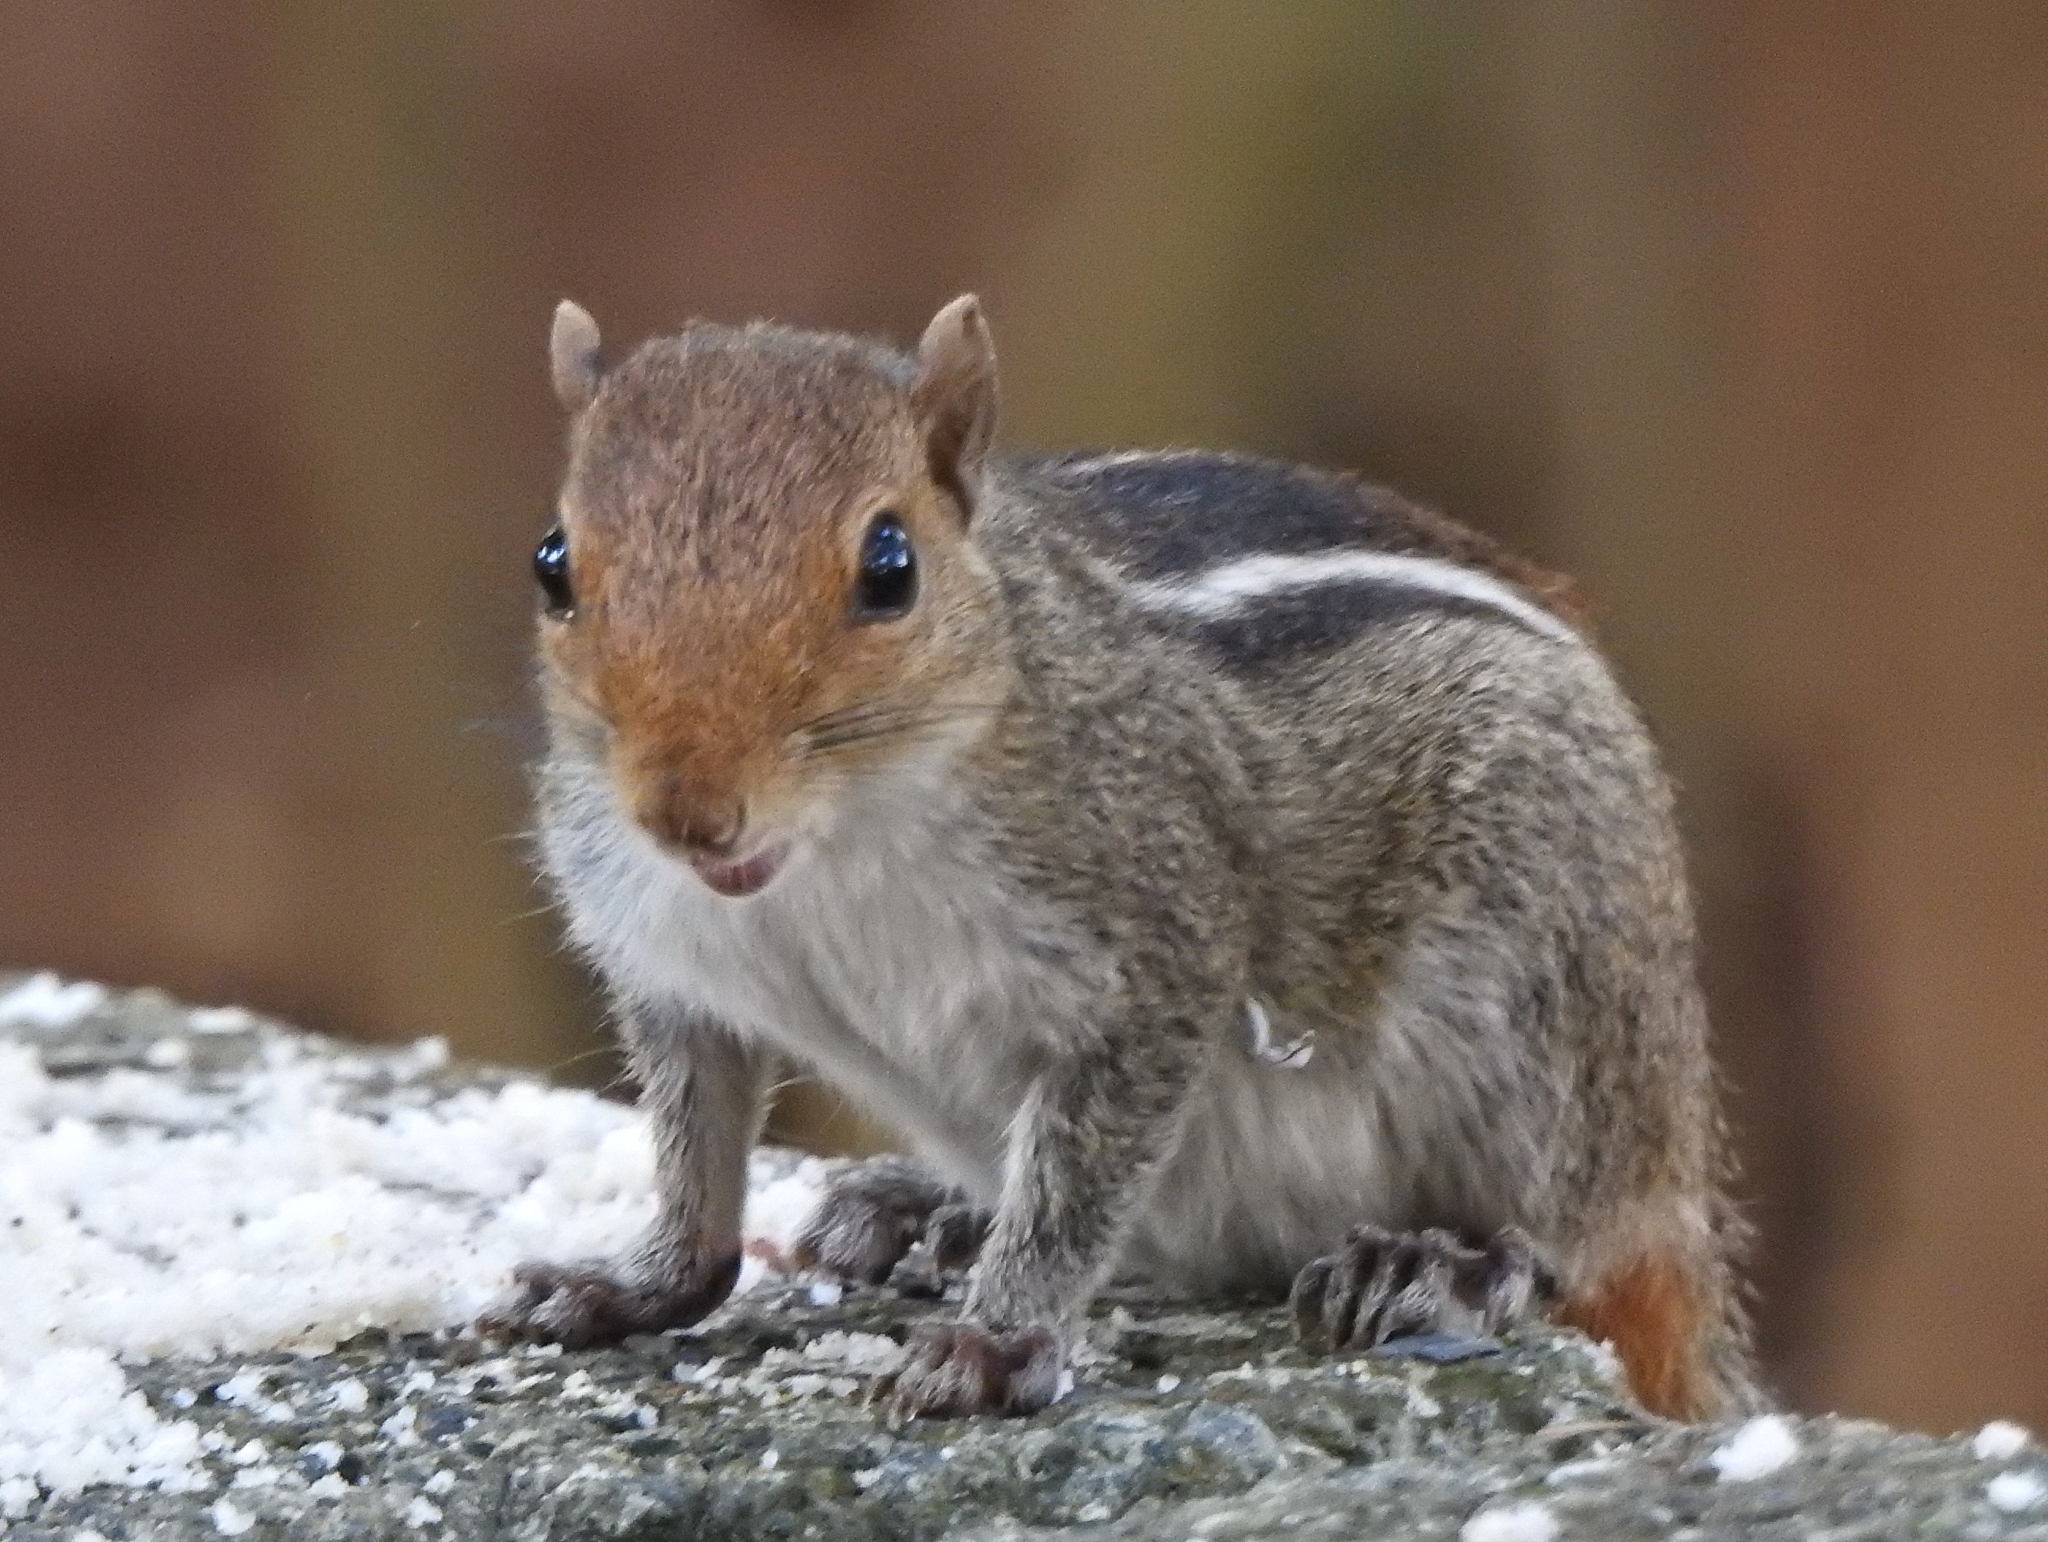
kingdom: Animalia
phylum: Chordata
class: Mammalia
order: Rodentia
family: Sciuridae
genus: Funambulus
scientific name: Funambulus tristriatus
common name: Jungle palm squirrel
